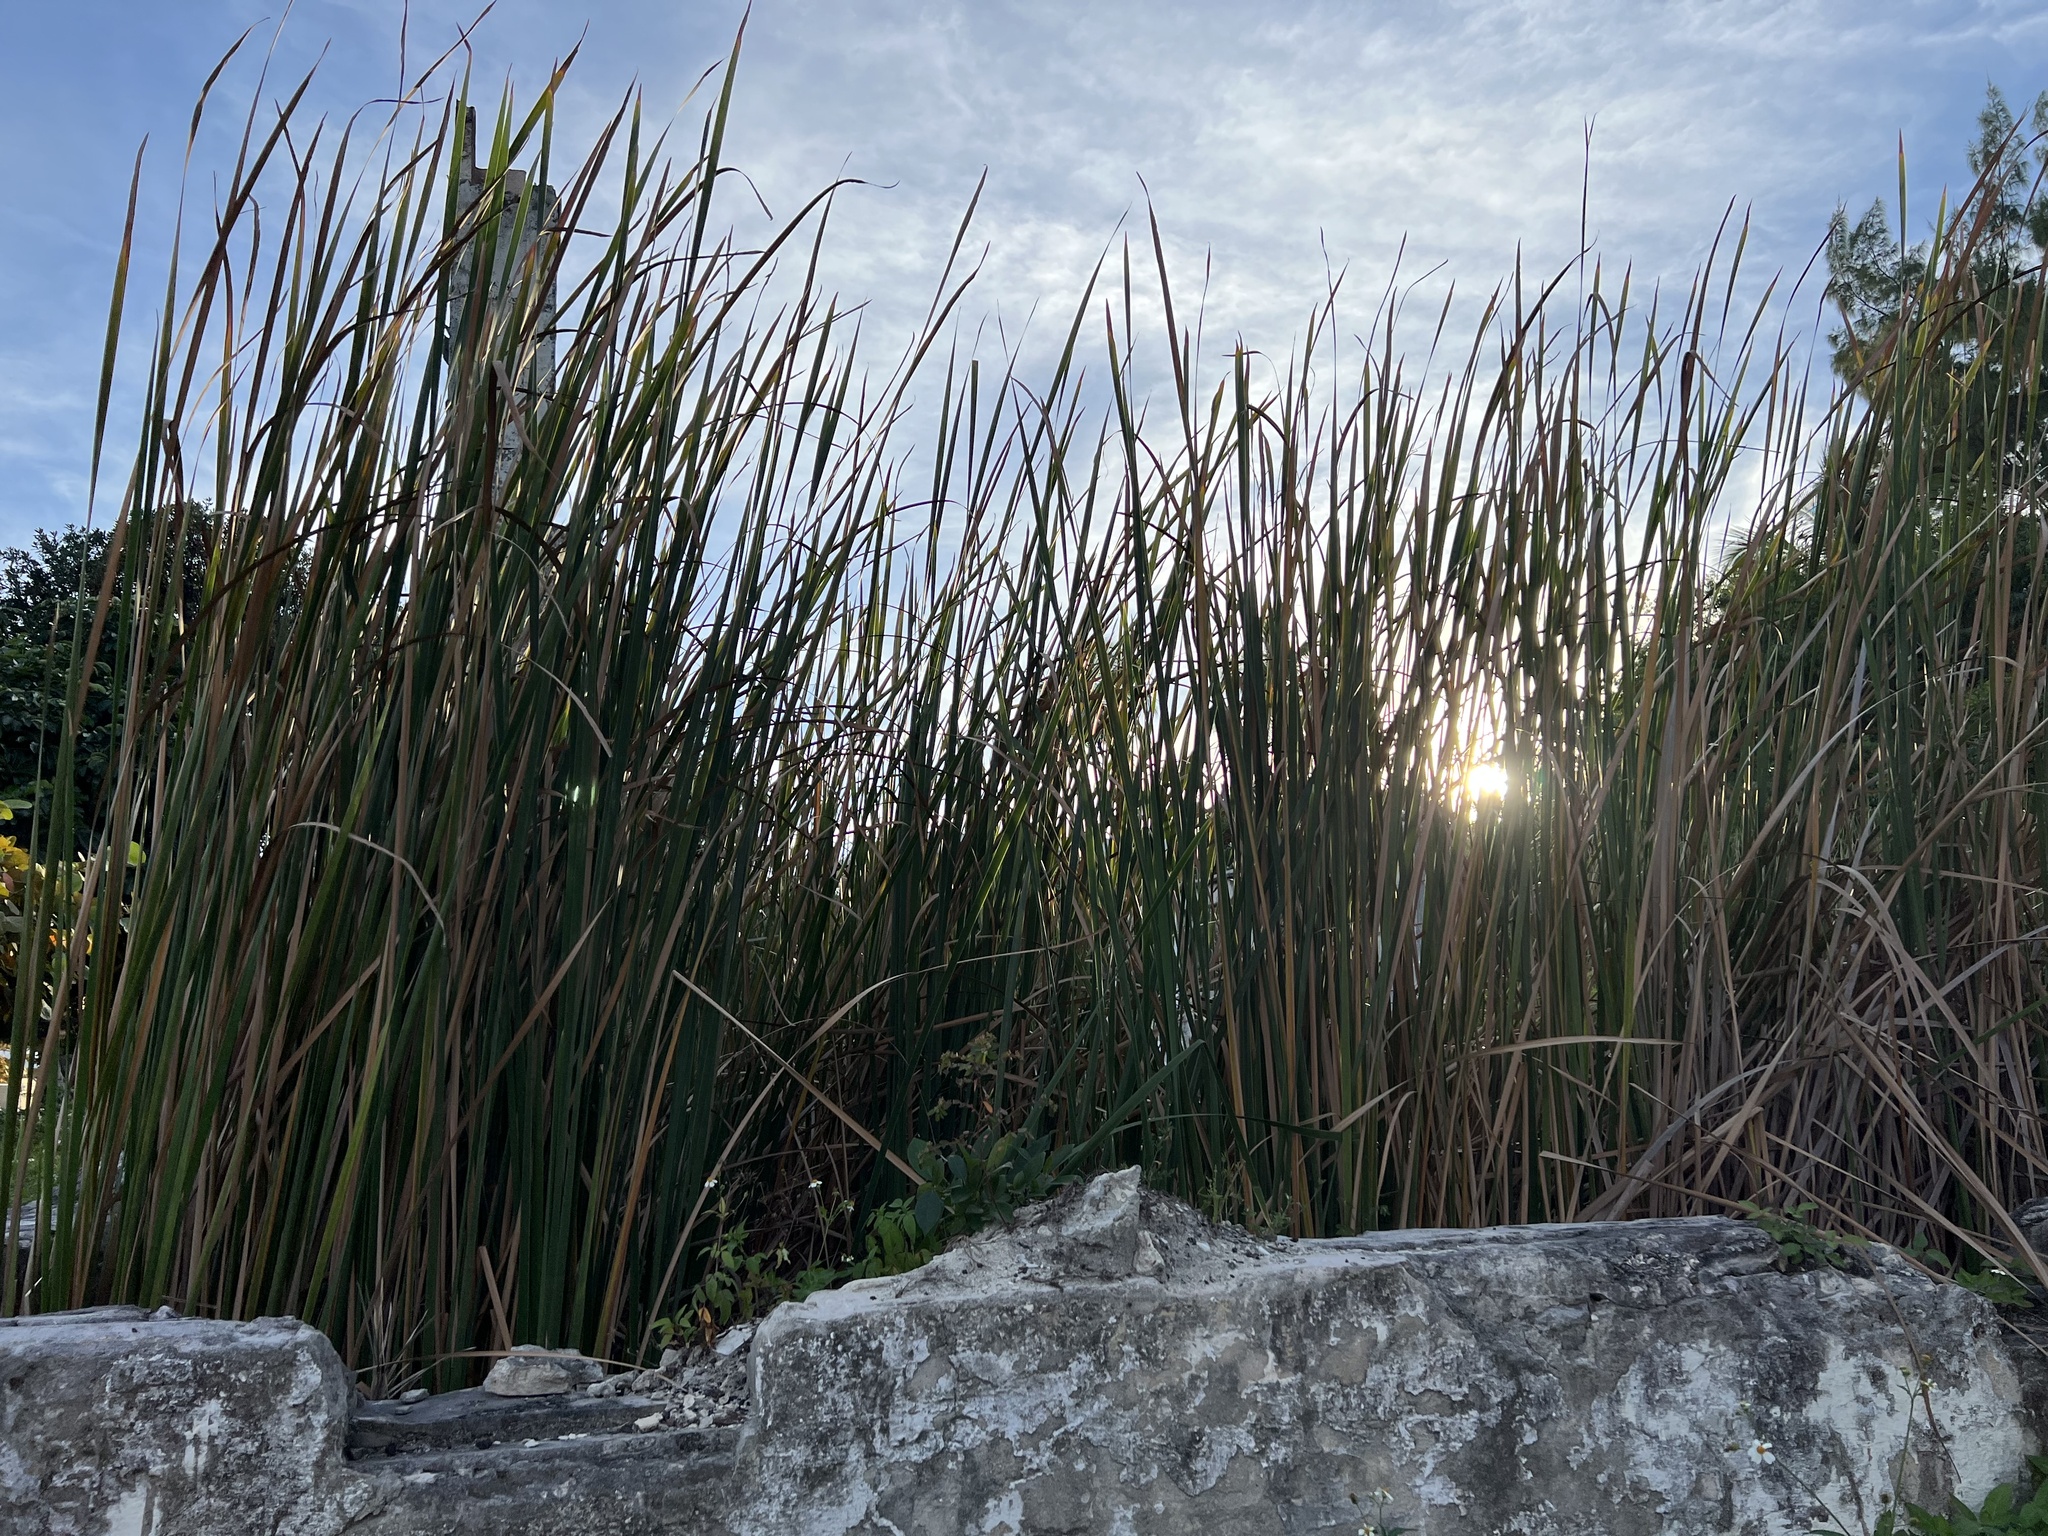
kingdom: Plantae
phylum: Tracheophyta
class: Liliopsida
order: Poales
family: Typhaceae
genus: Typha
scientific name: Typha domingensis
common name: Southern cattail
